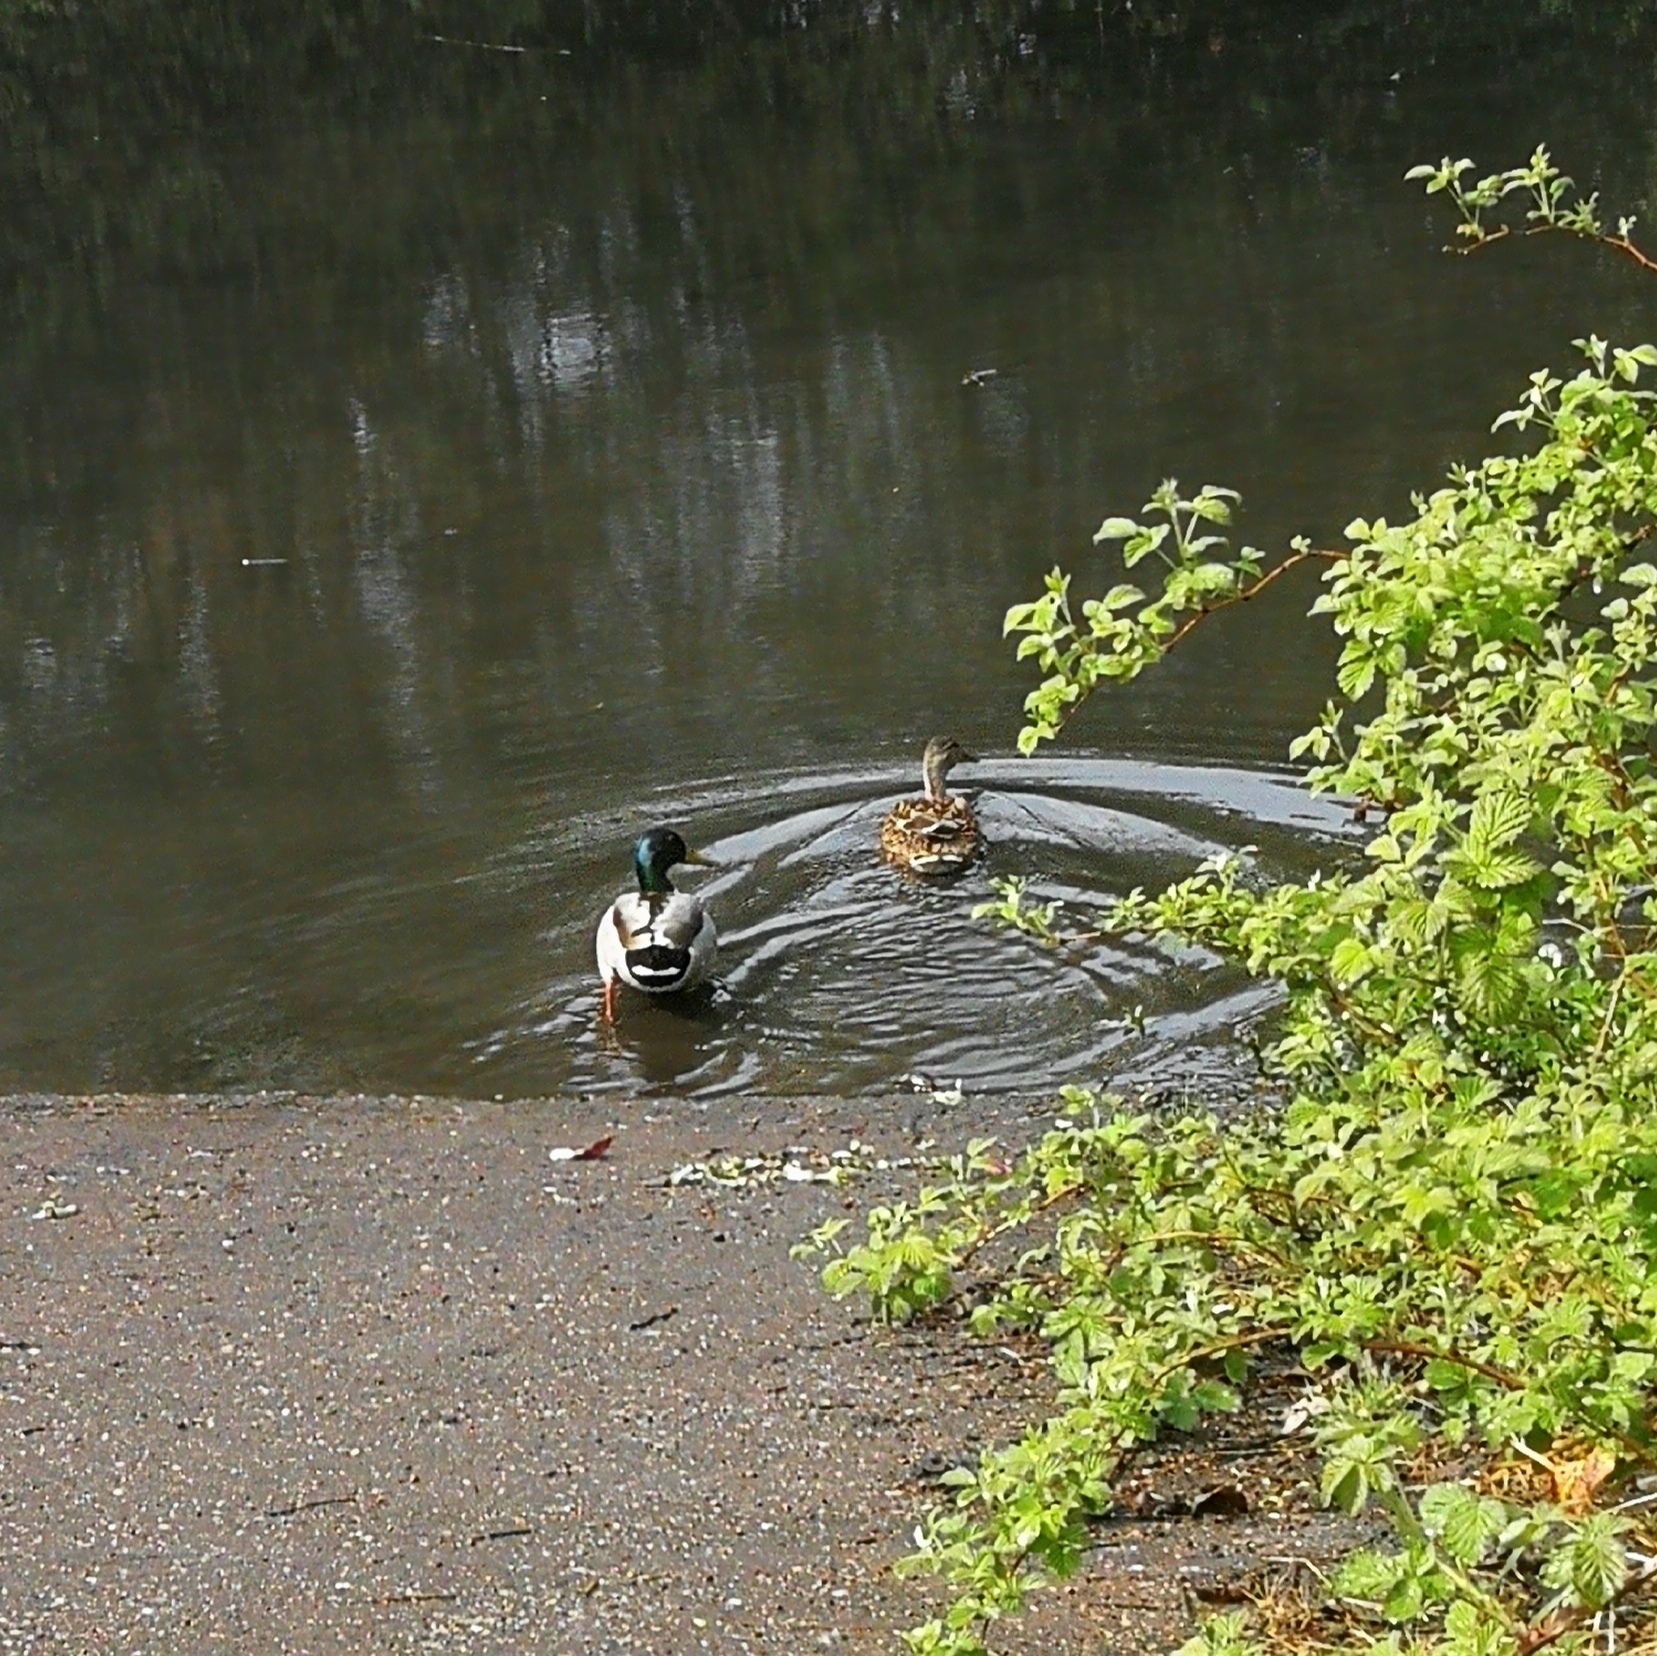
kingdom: Animalia
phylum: Chordata
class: Aves
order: Anseriformes
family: Anatidae
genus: Anas
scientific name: Anas platyrhynchos
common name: Mallard
